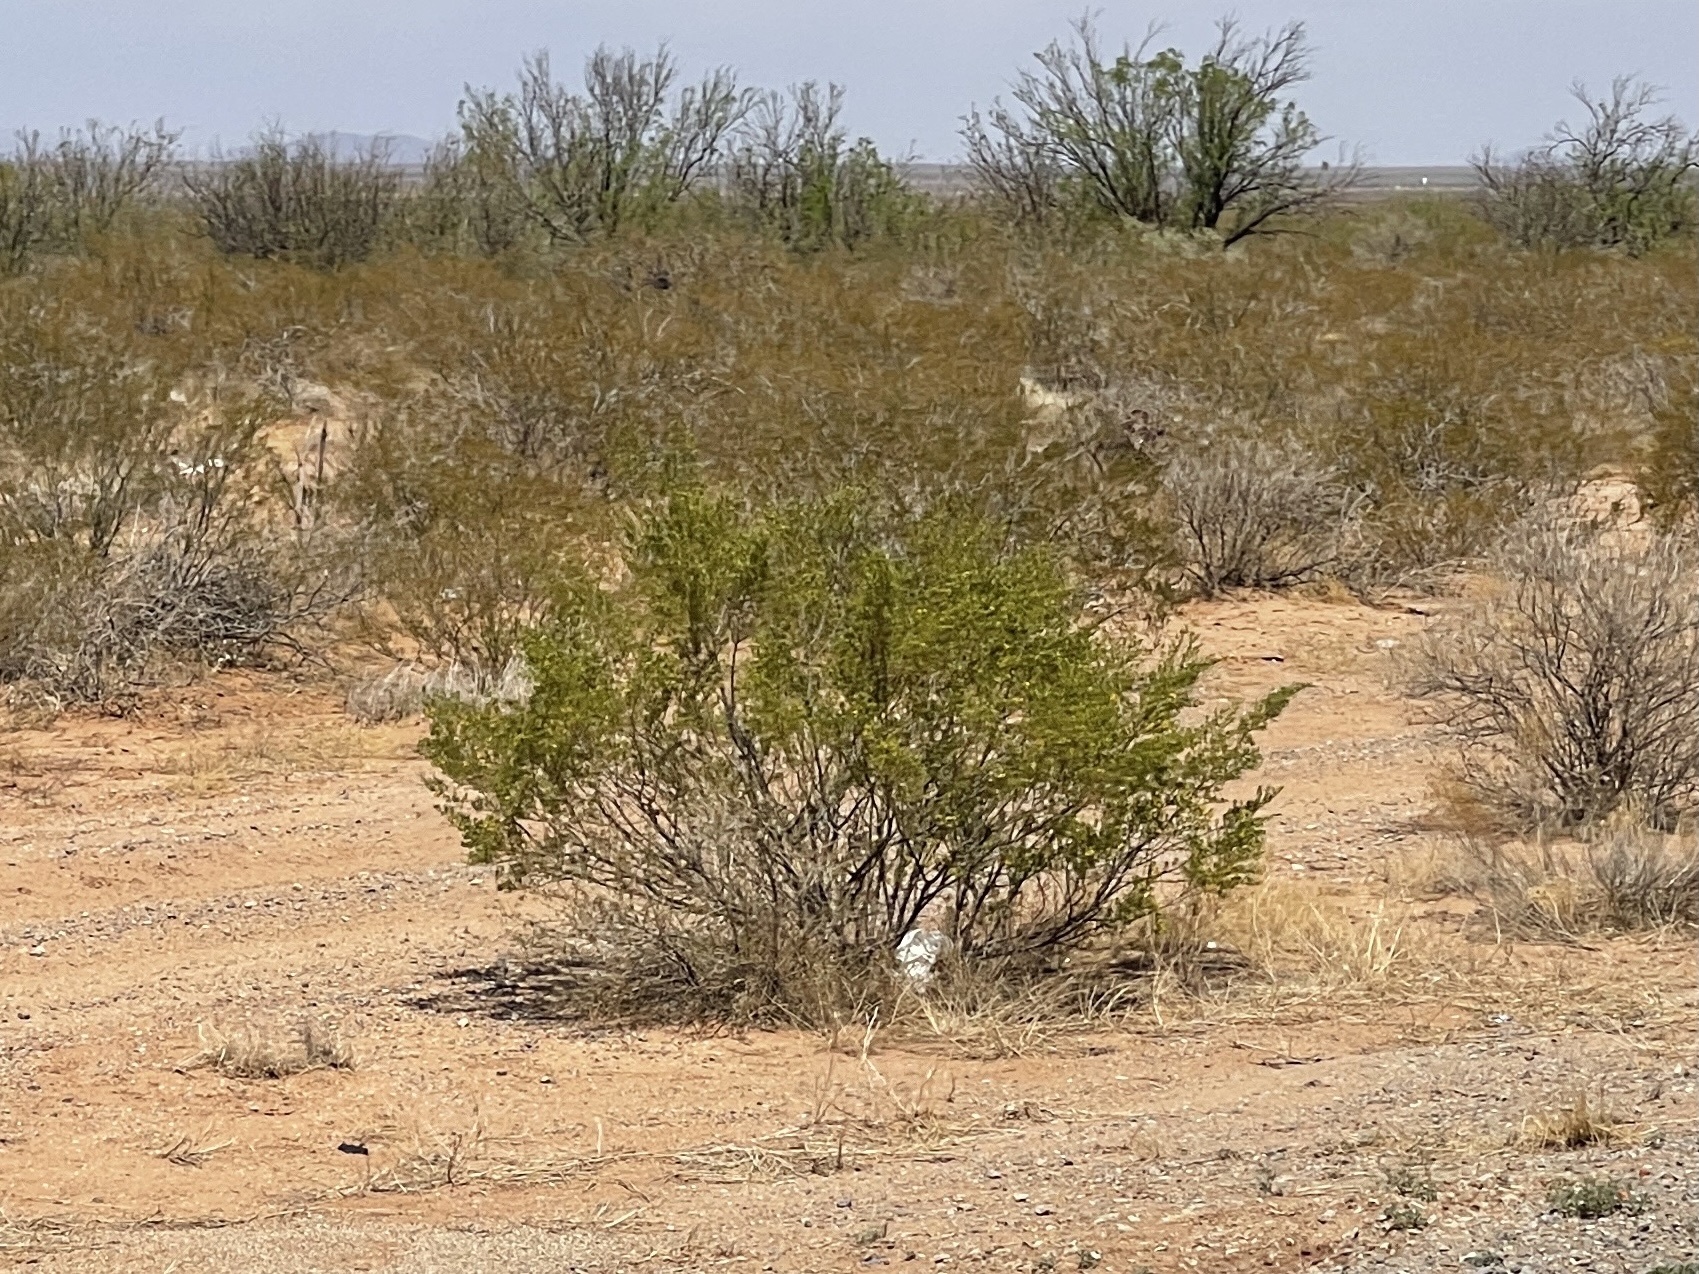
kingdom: Plantae
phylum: Tracheophyta
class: Magnoliopsida
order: Zygophyllales
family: Zygophyllaceae
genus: Larrea
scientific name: Larrea tridentata
